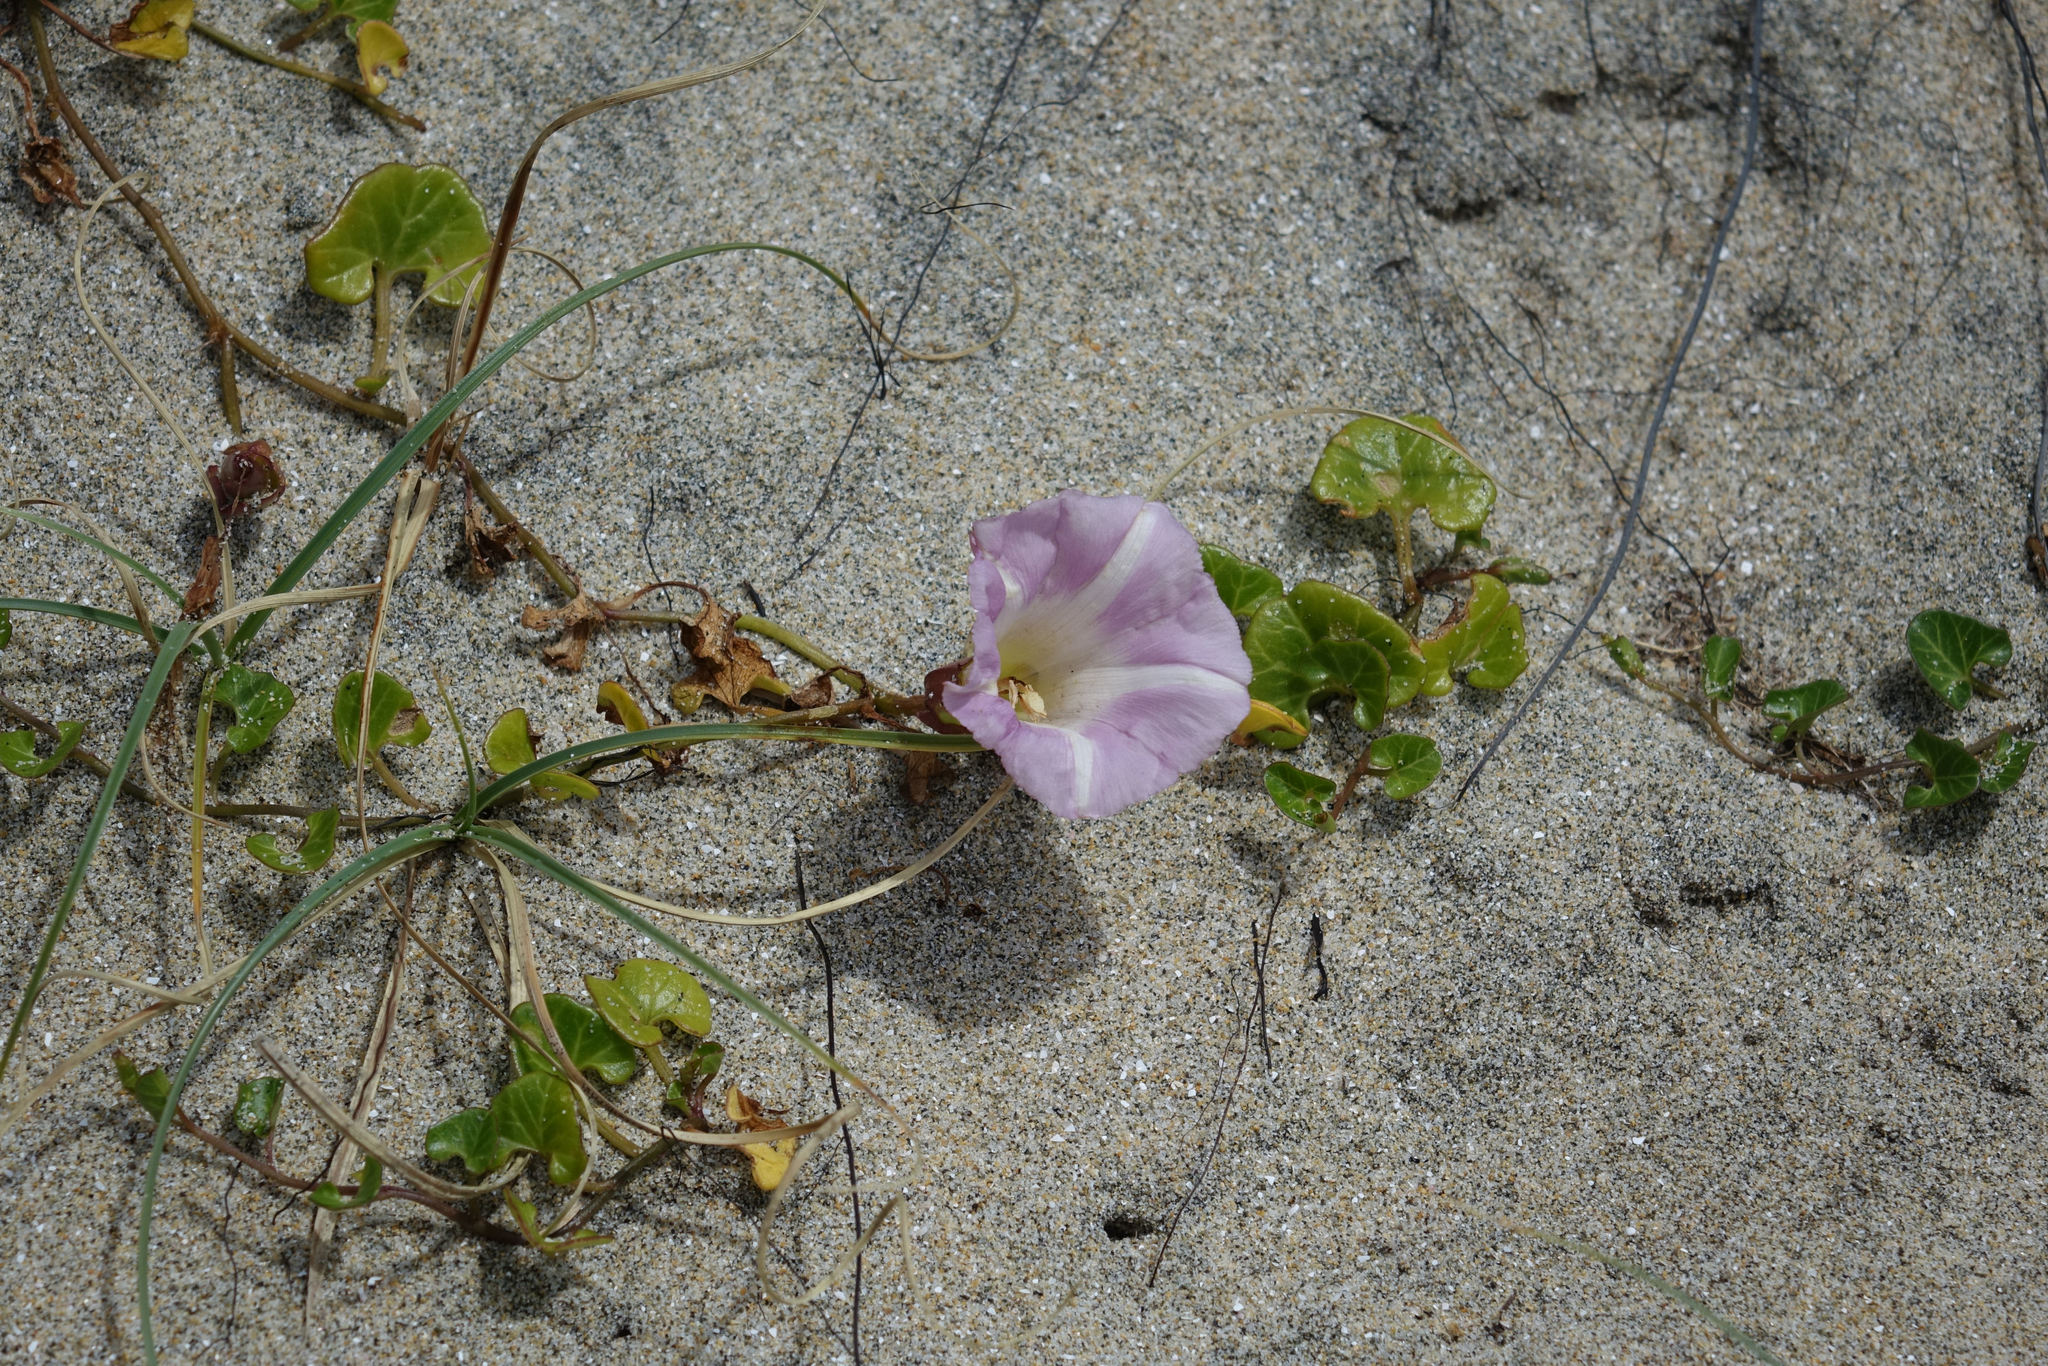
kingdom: Plantae
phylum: Tracheophyta
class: Magnoliopsida
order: Solanales
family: Convolvulaceae
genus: Calystegia
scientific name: Calystegia soldanella
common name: Sea bindweed
